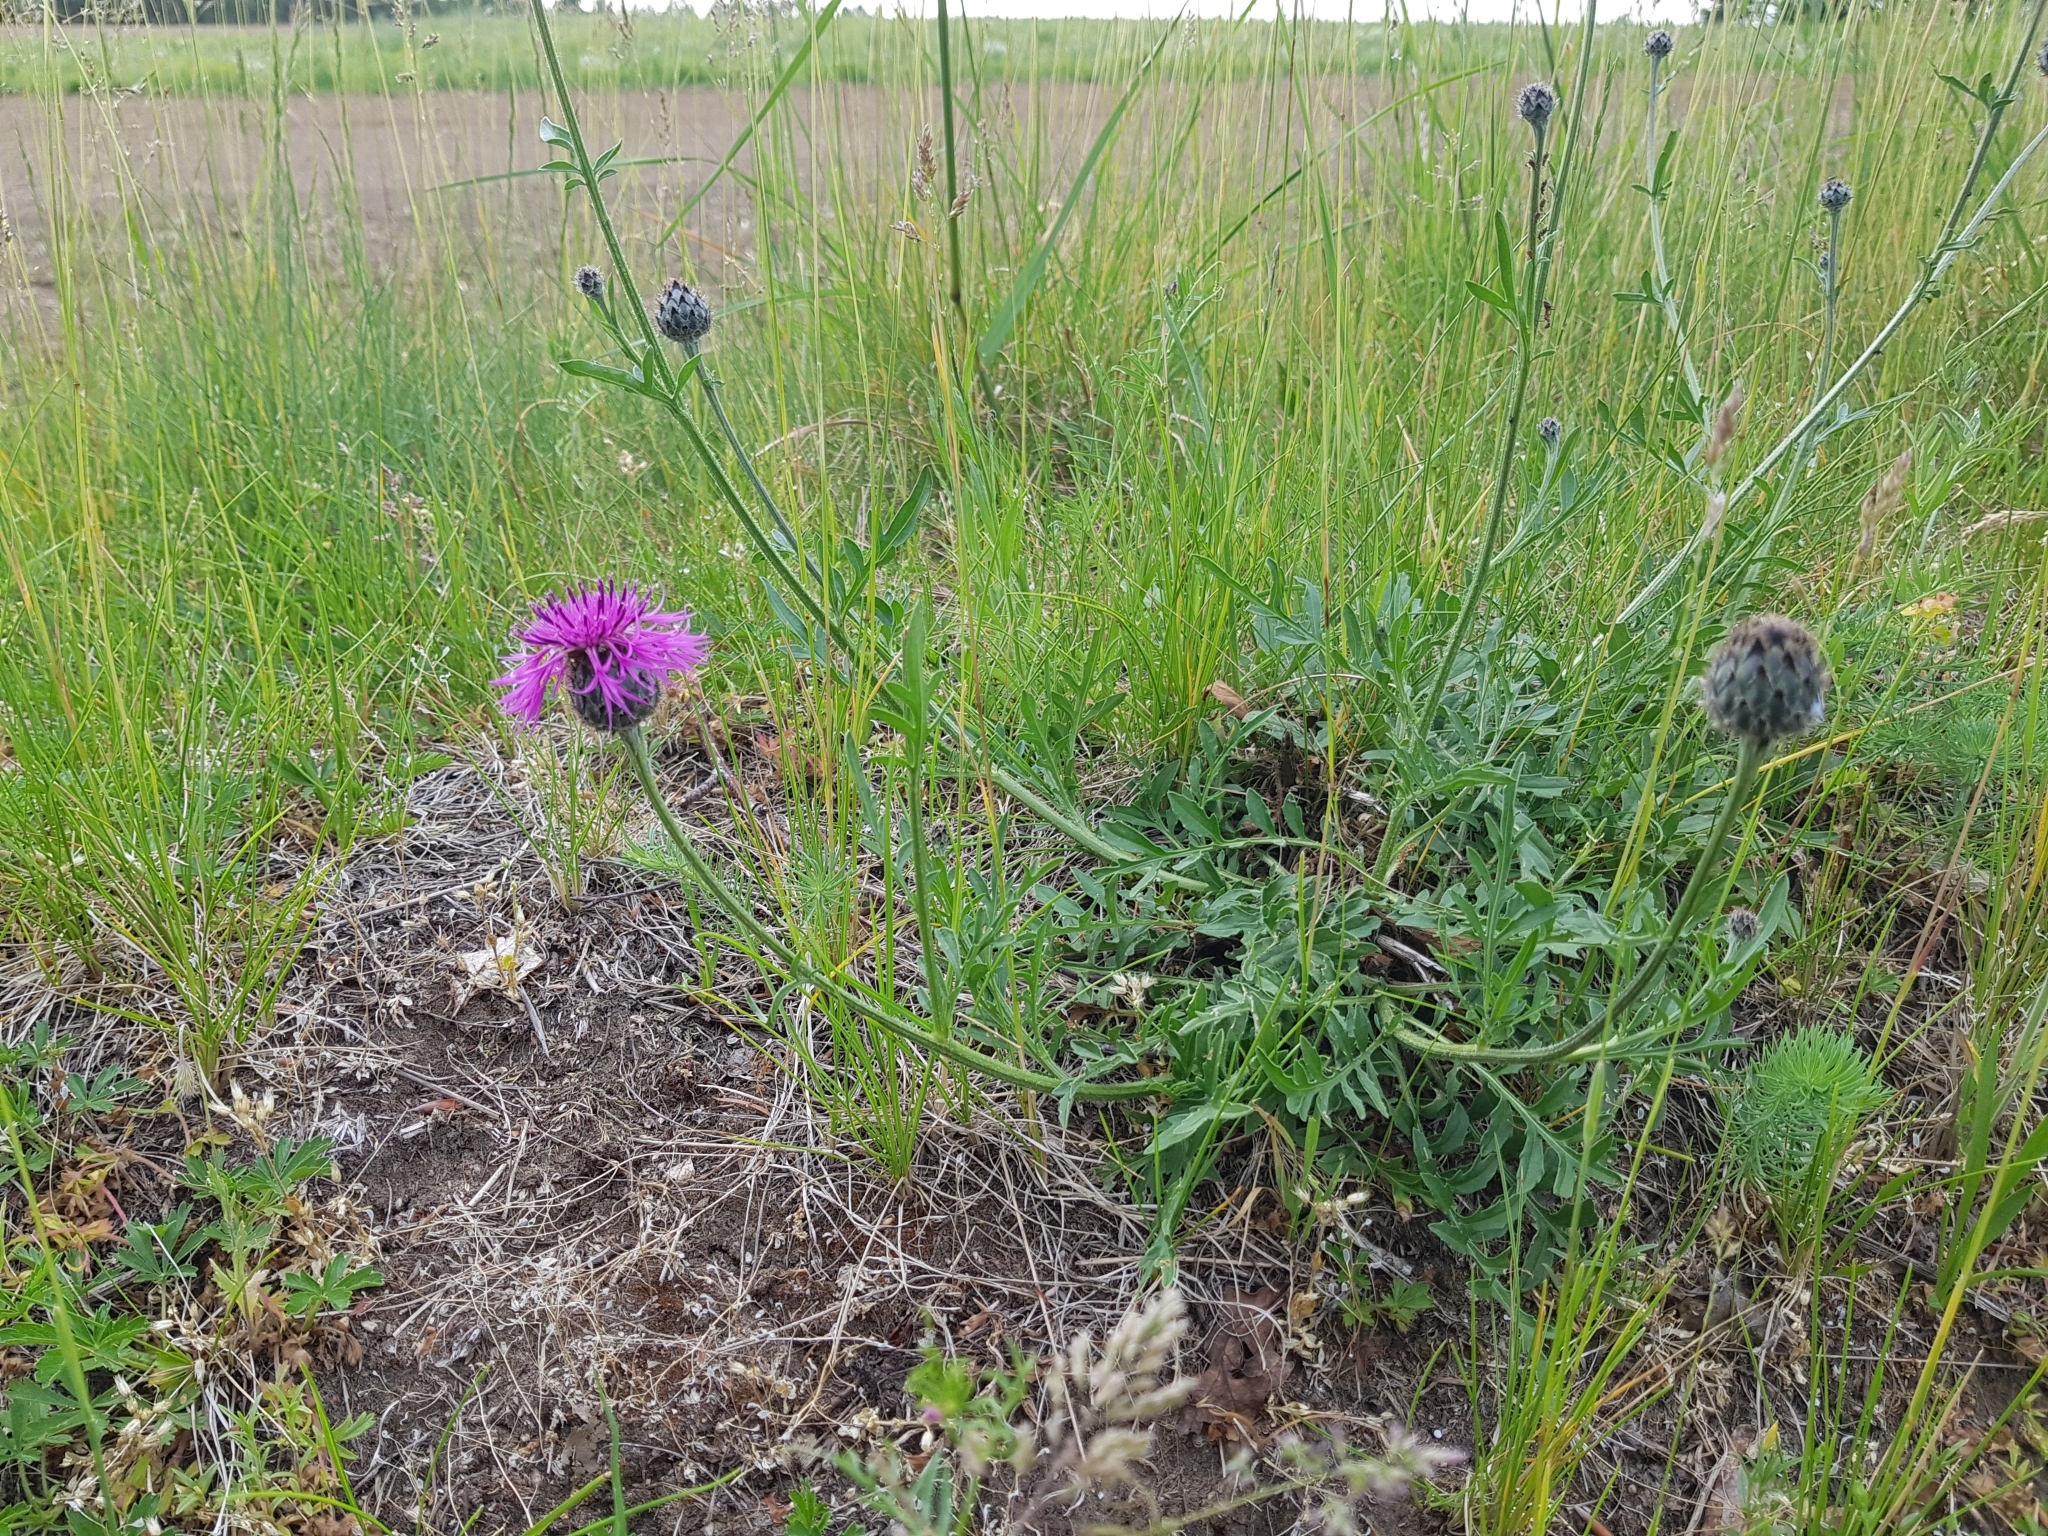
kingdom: Plantae
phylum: Tracheophyta
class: Magnoliopsida
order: Asterales
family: Asteraceae
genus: Centaurea
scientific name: Centaurea scabiosa
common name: Greater knapweed
